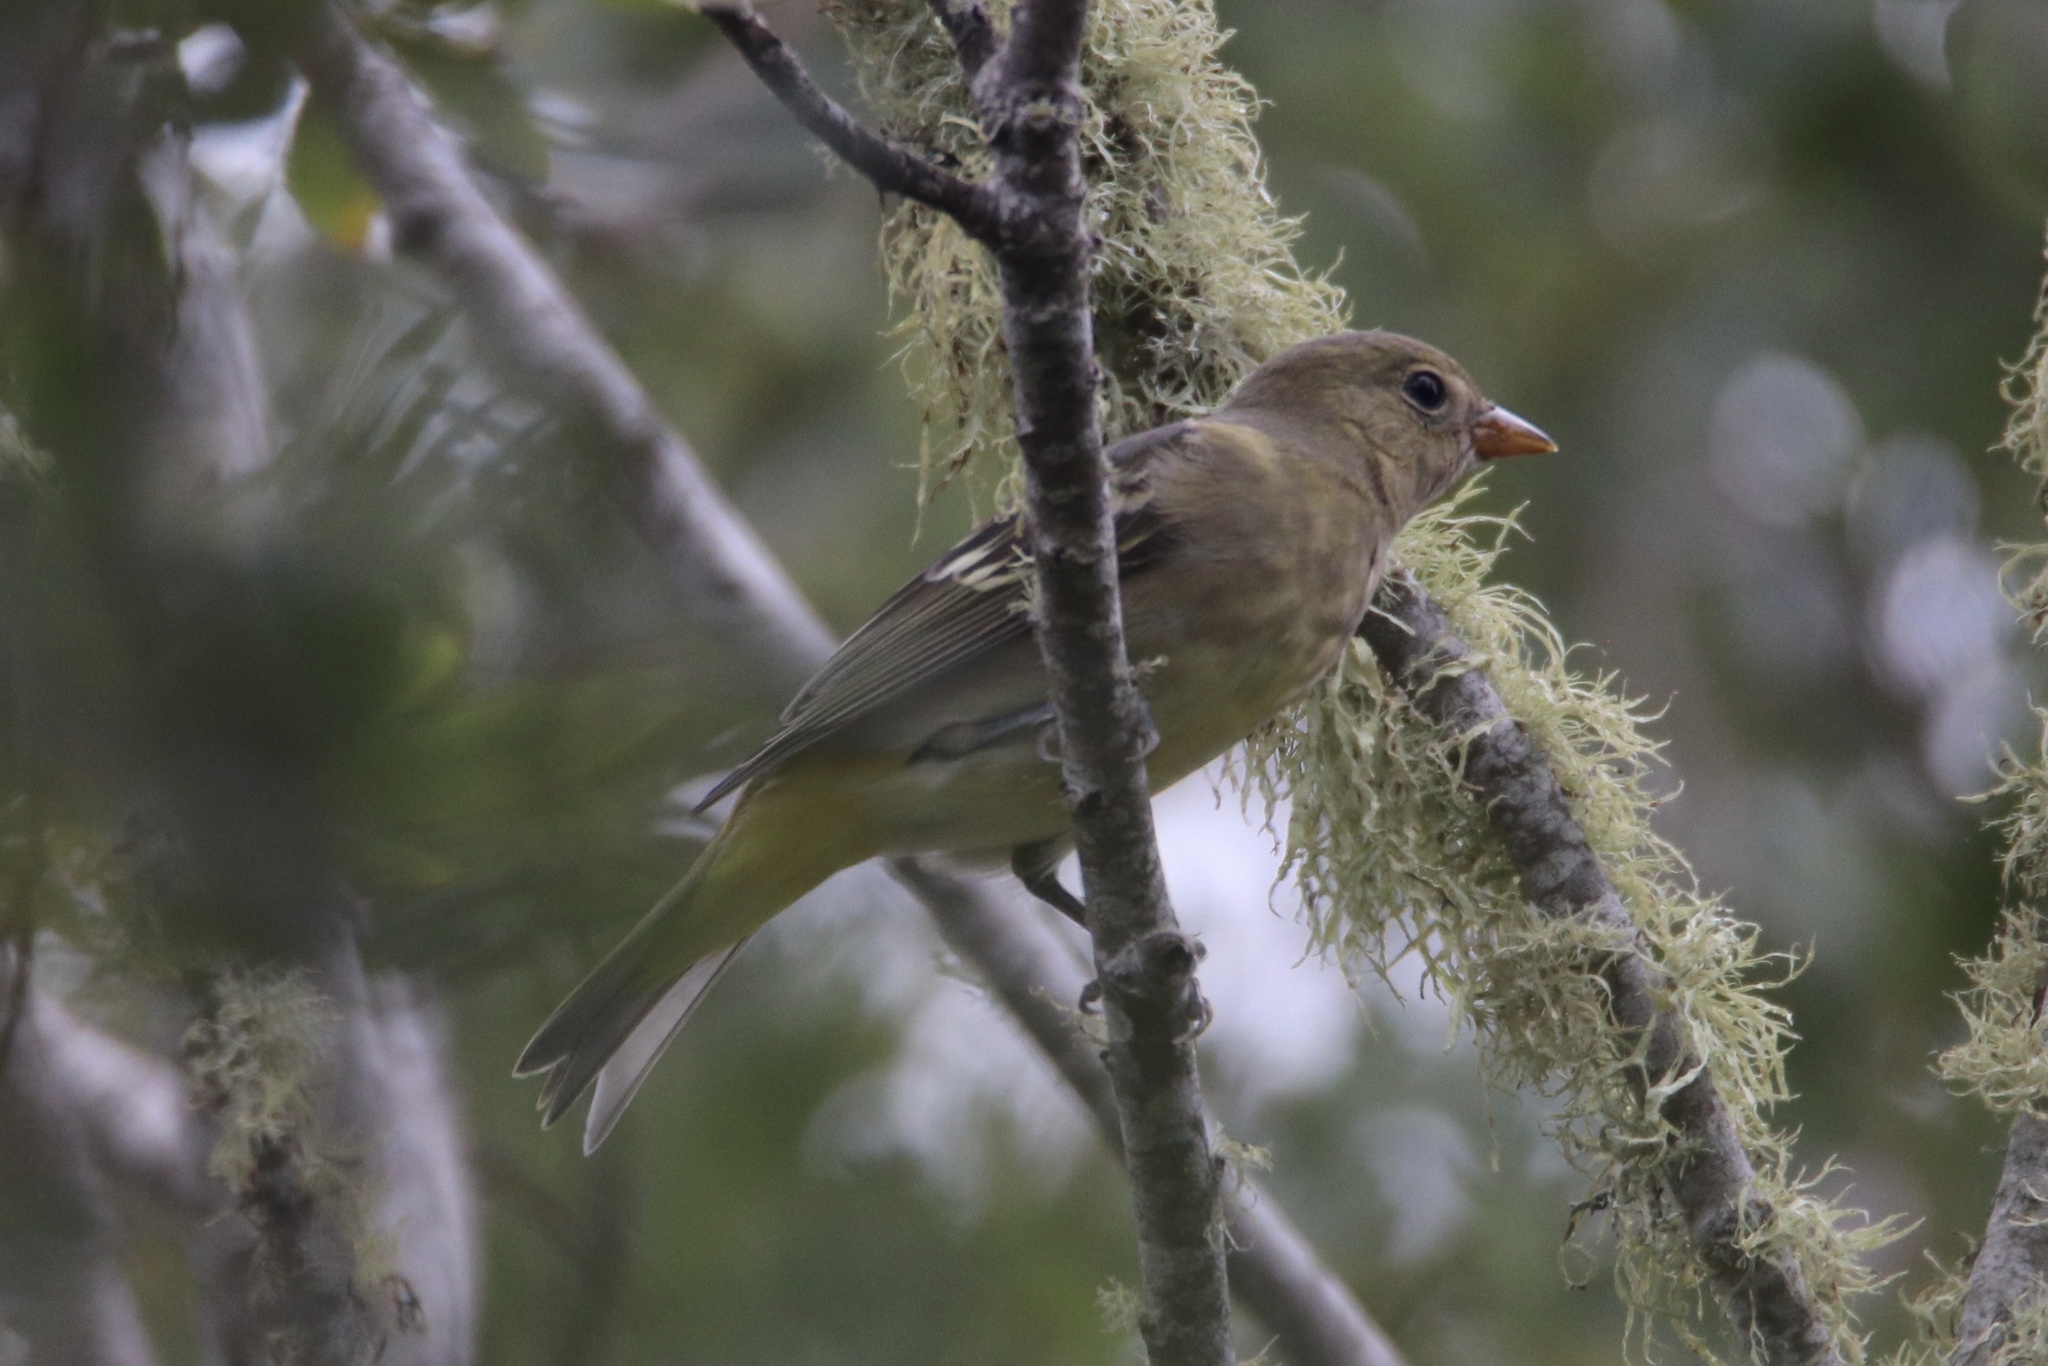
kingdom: Animalia
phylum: Chordata
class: Aves
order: Passeriformes
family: Cardinalidae
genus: Piranga
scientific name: Piranga ludoviciana
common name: Western tanager
